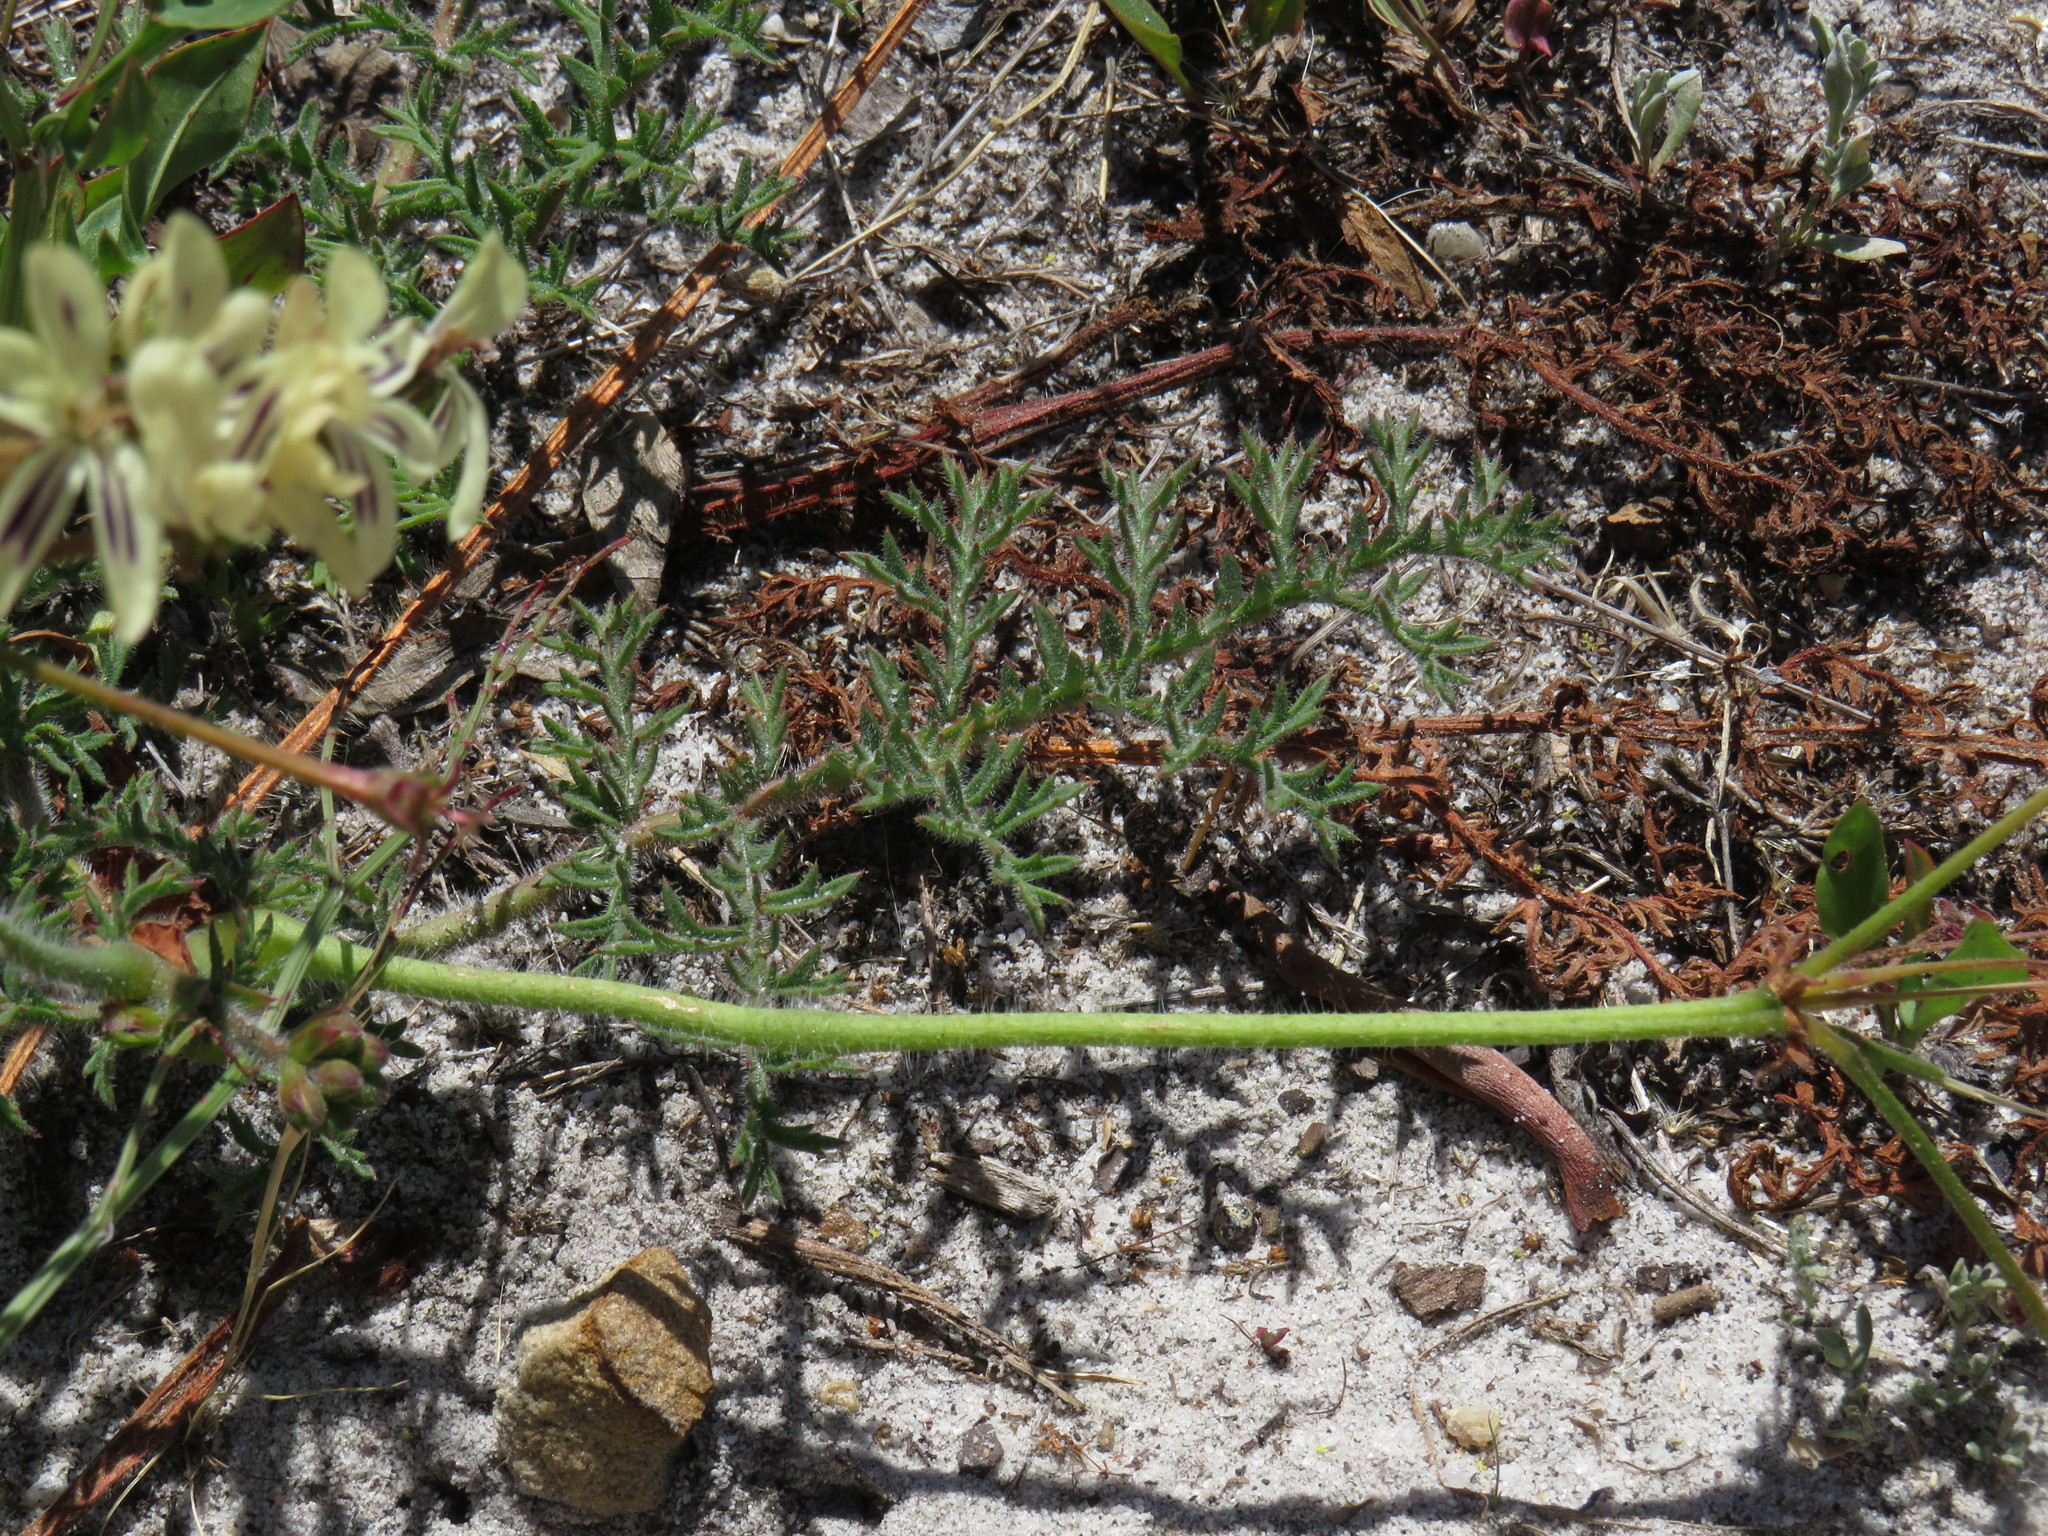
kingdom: Plantae
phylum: Tracheophyta
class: Magnoliopsida
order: Geraniales
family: Geraniaceae
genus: Pelargonium
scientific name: Pelargonium triste
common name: Night-scent pelargonium
